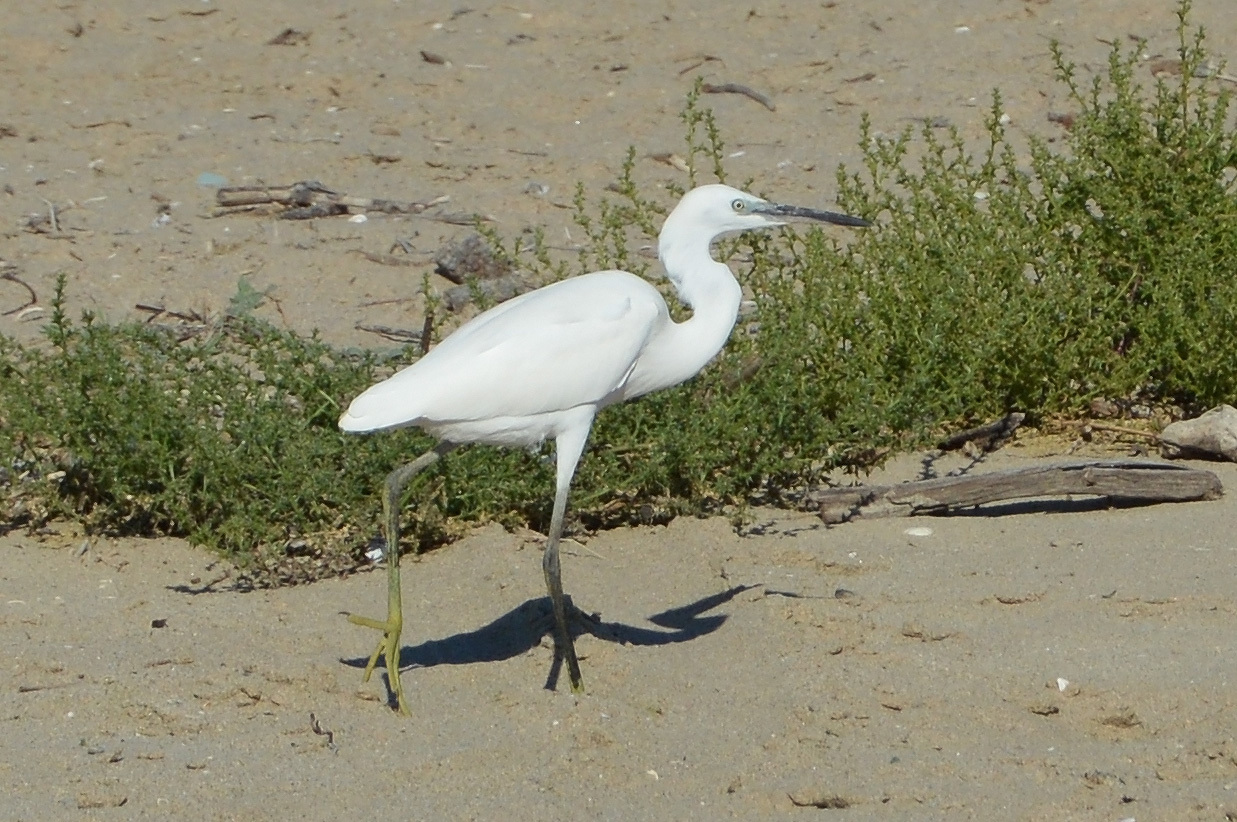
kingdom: Animalia
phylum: Chordata
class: Aves
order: Pelecaniformes
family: Ardeidae
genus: Egretta
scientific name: Egretta garzetta
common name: Little egret
